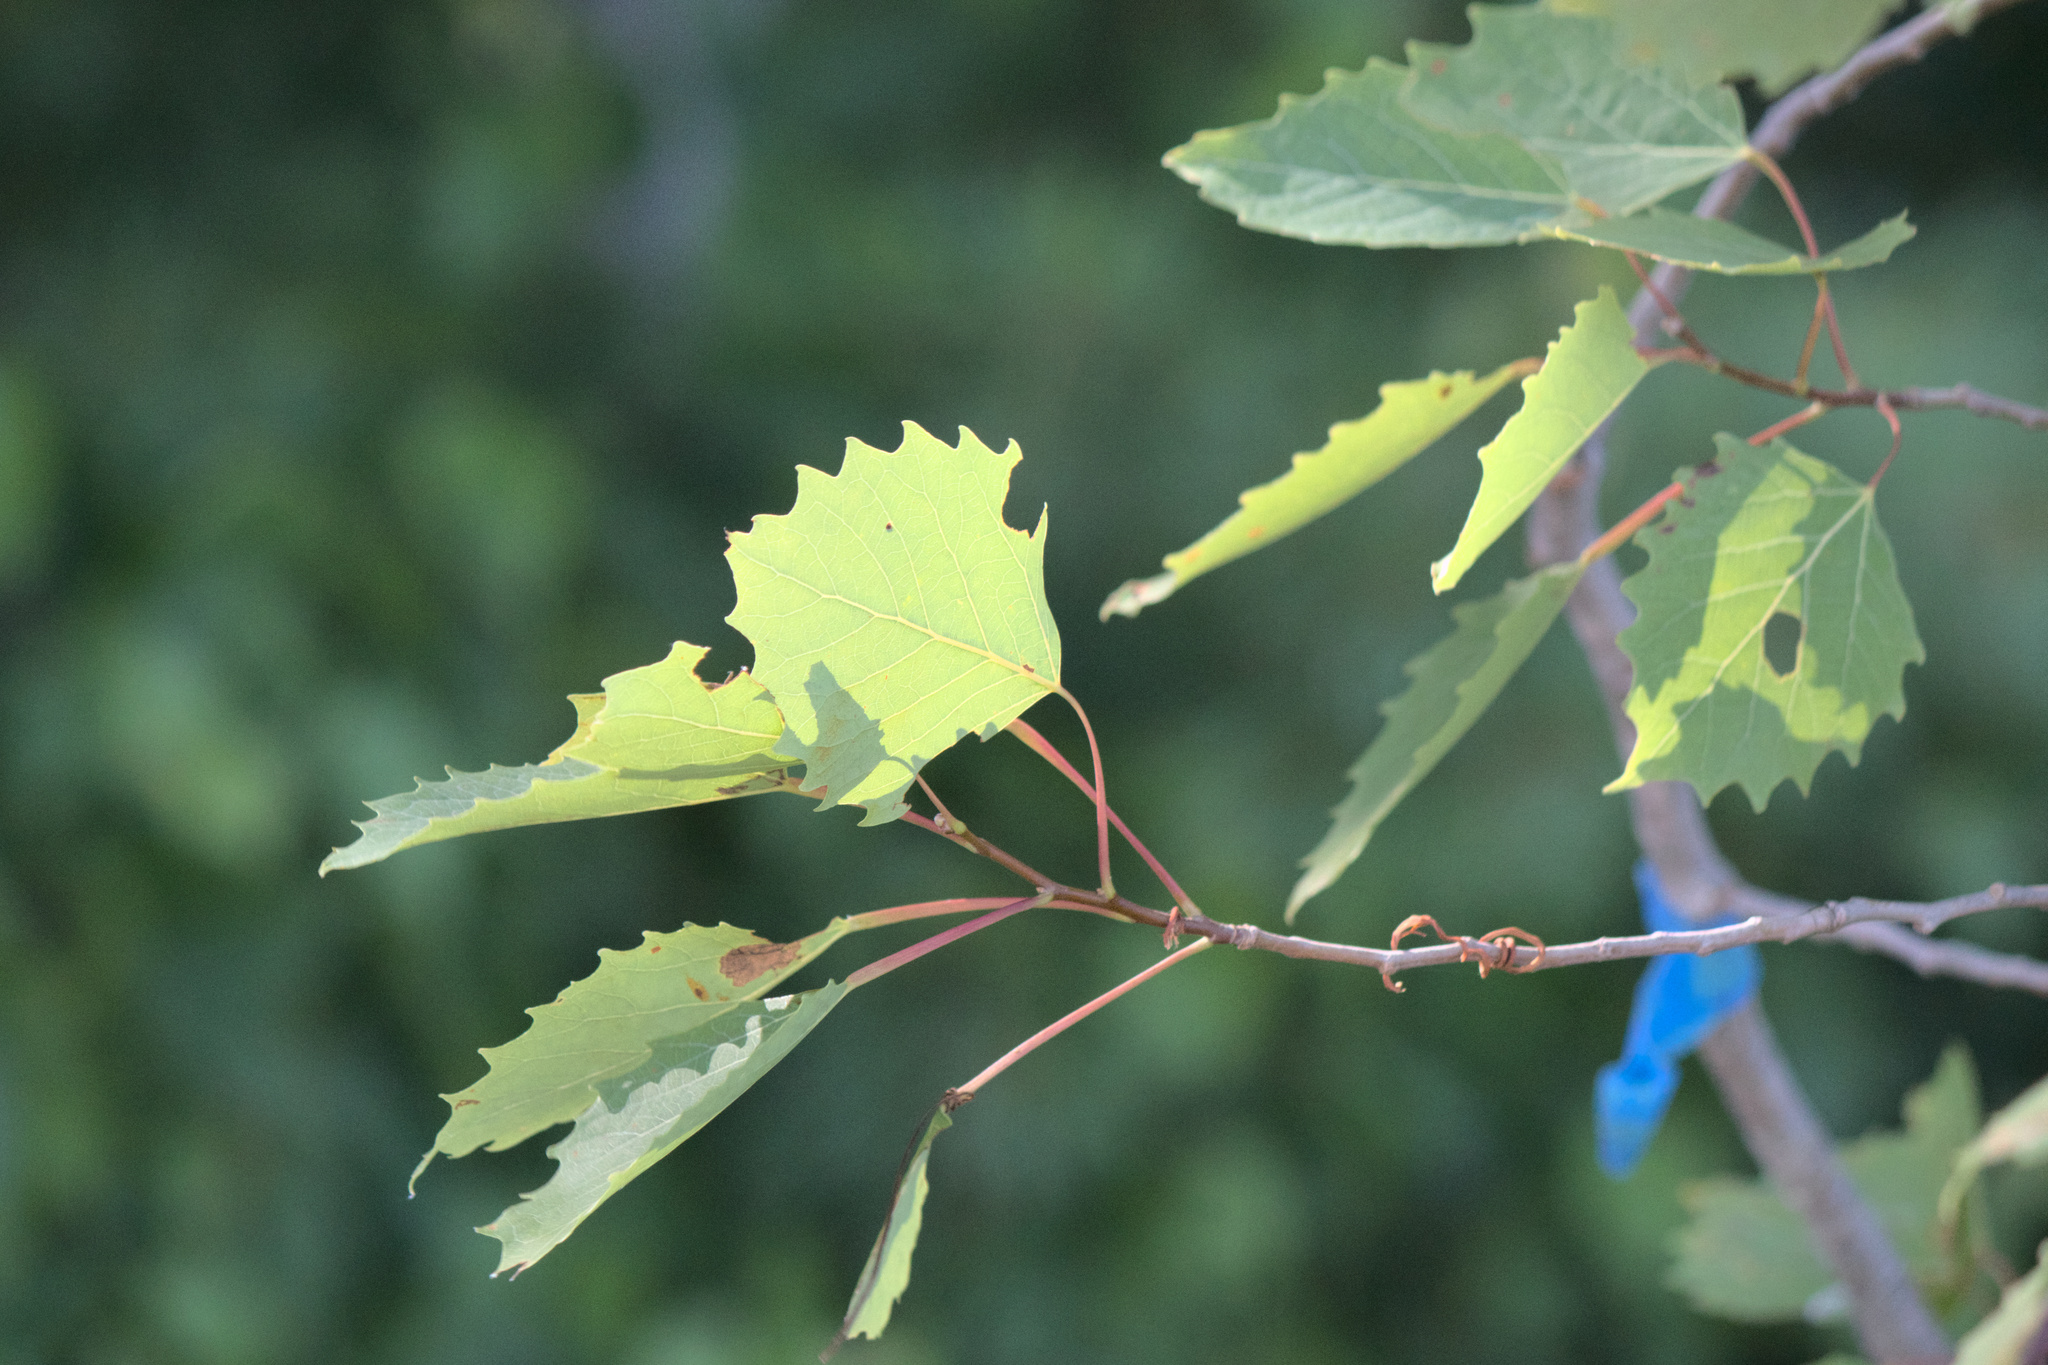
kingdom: Plantae
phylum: Tracheophyta
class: Magnoliopsida
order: Malpighiales
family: Salicaceae
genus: Populus
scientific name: Populus grandidentata
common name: Bigtooth aspen
